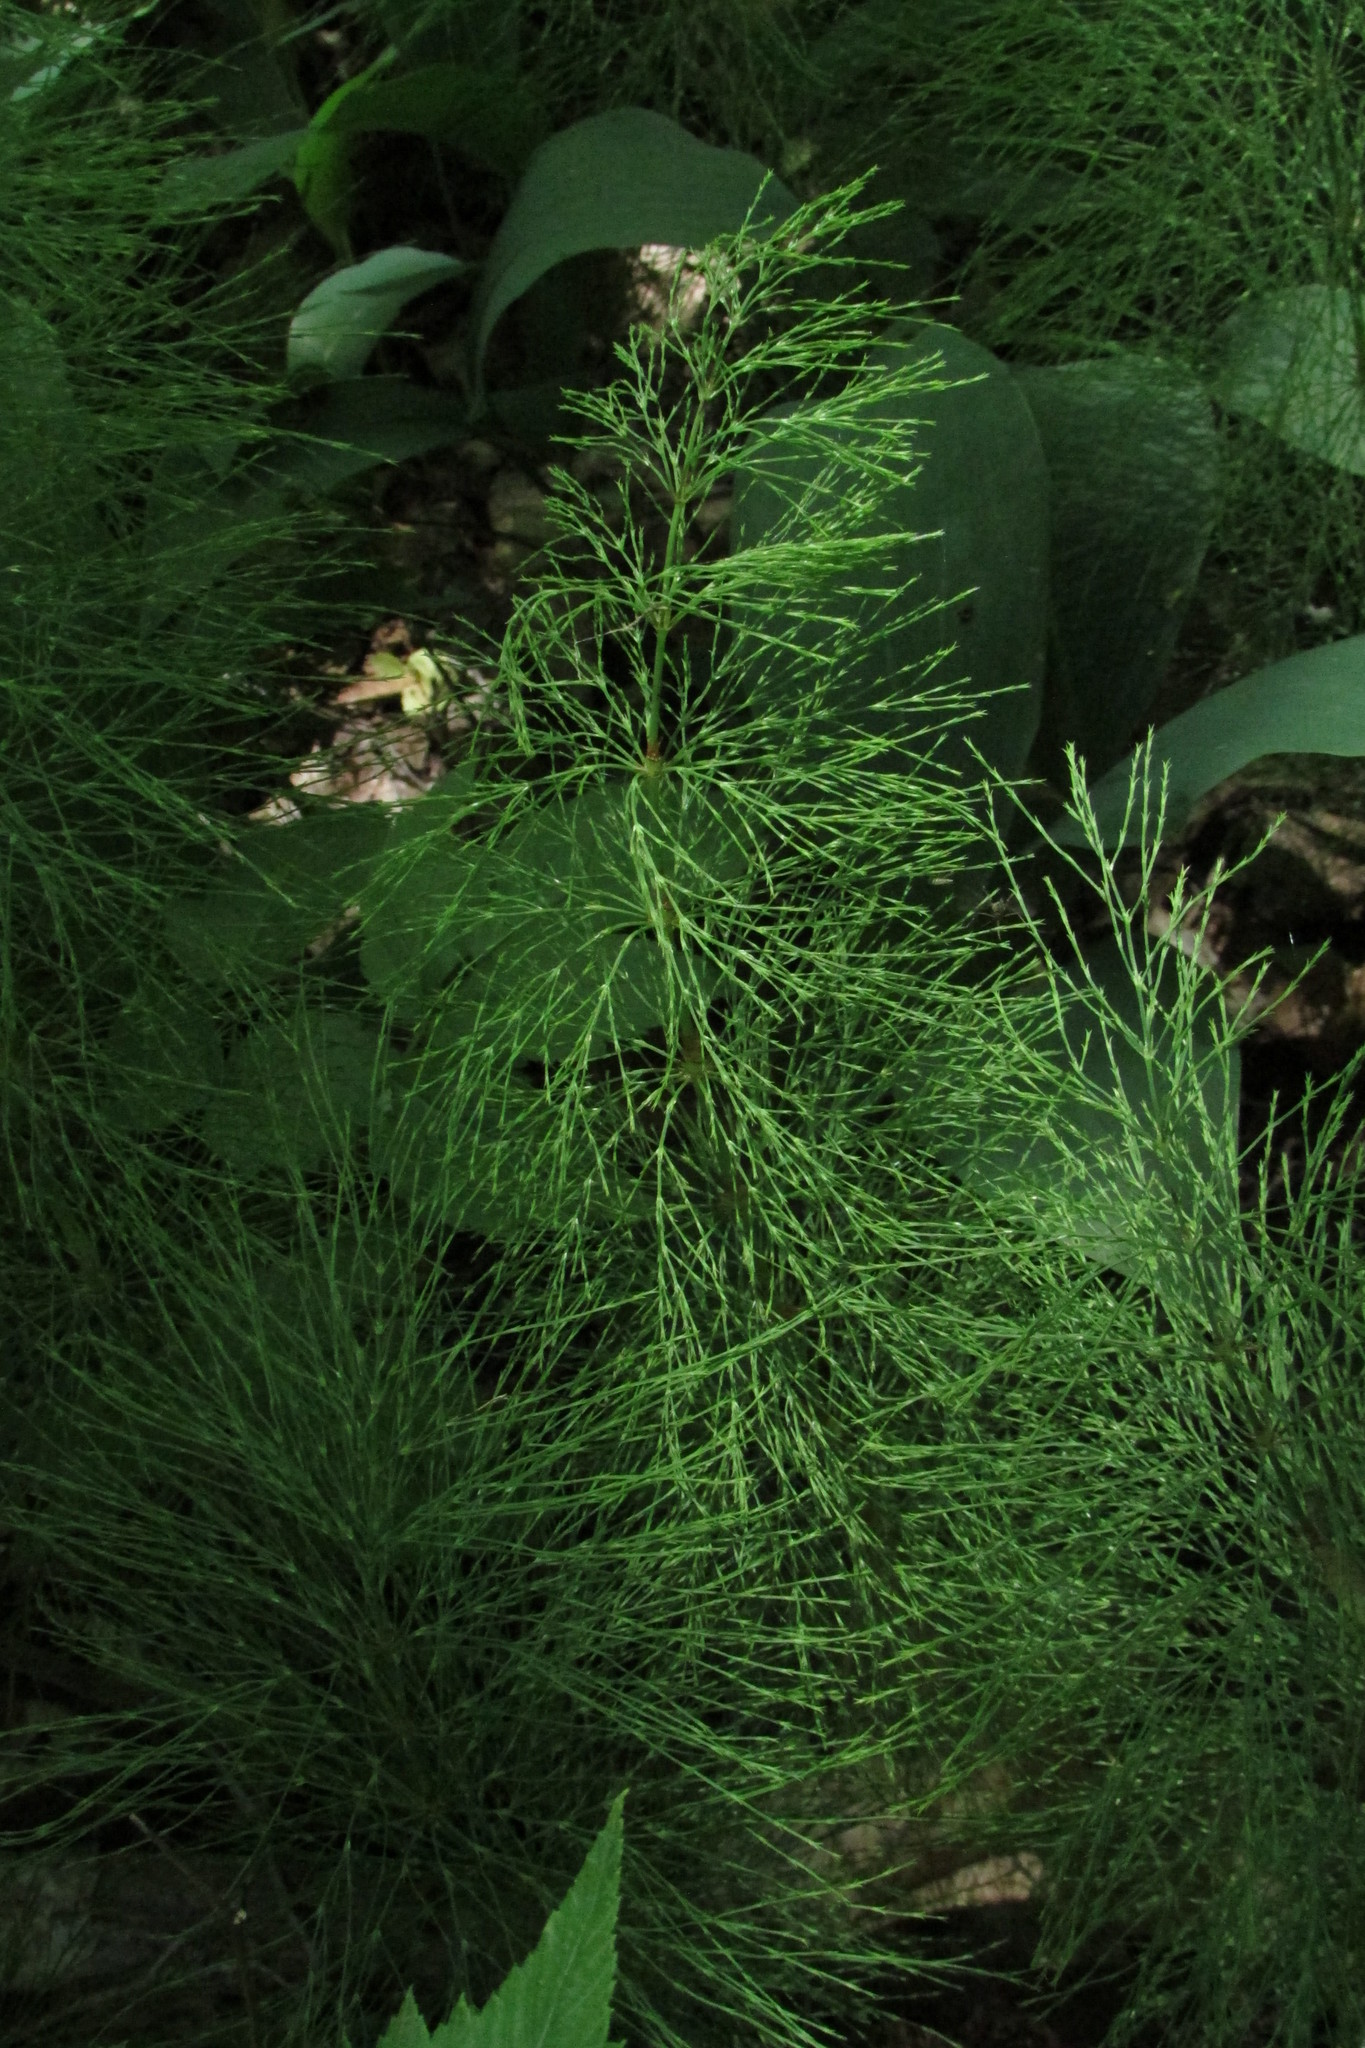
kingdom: Plantae
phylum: Tracheophyta
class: Polypodiopsida
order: Equisetales
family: Equisetaceae
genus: Equisetum
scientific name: Equisetum sylvaticum
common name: Wood horsetail
